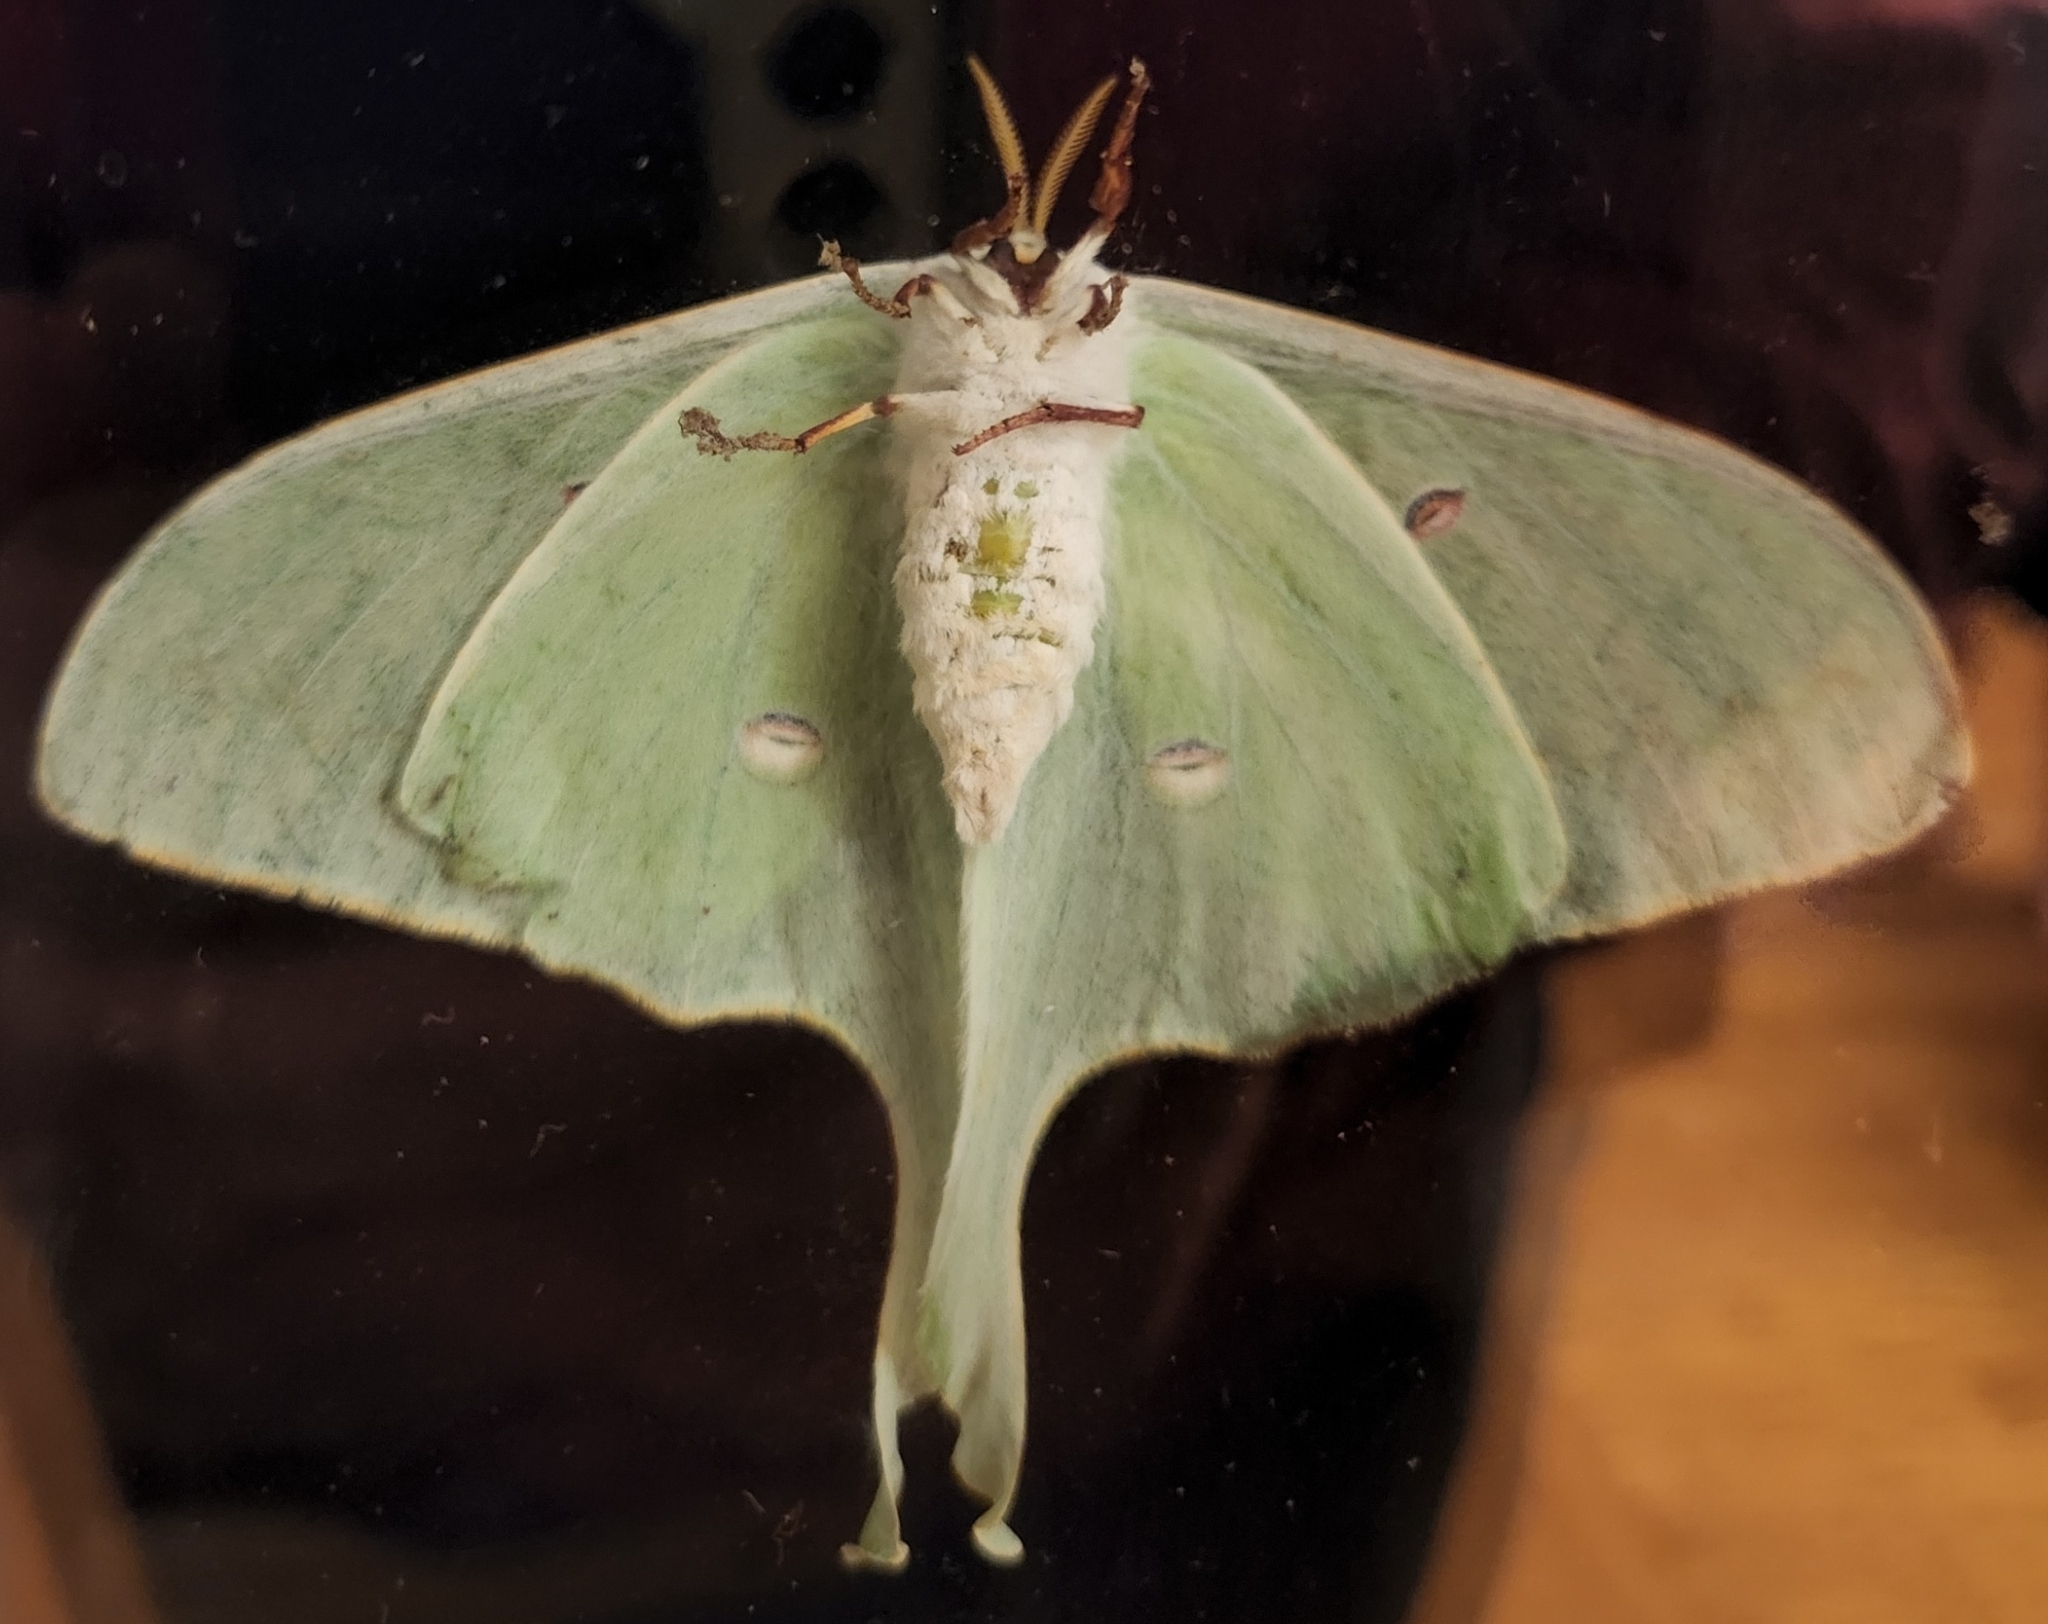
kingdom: Animalia
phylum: Arthropoda
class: Insecta
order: Lepidoptera
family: Saturniidae
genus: Actias
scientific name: Actias luna
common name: Luna moth
